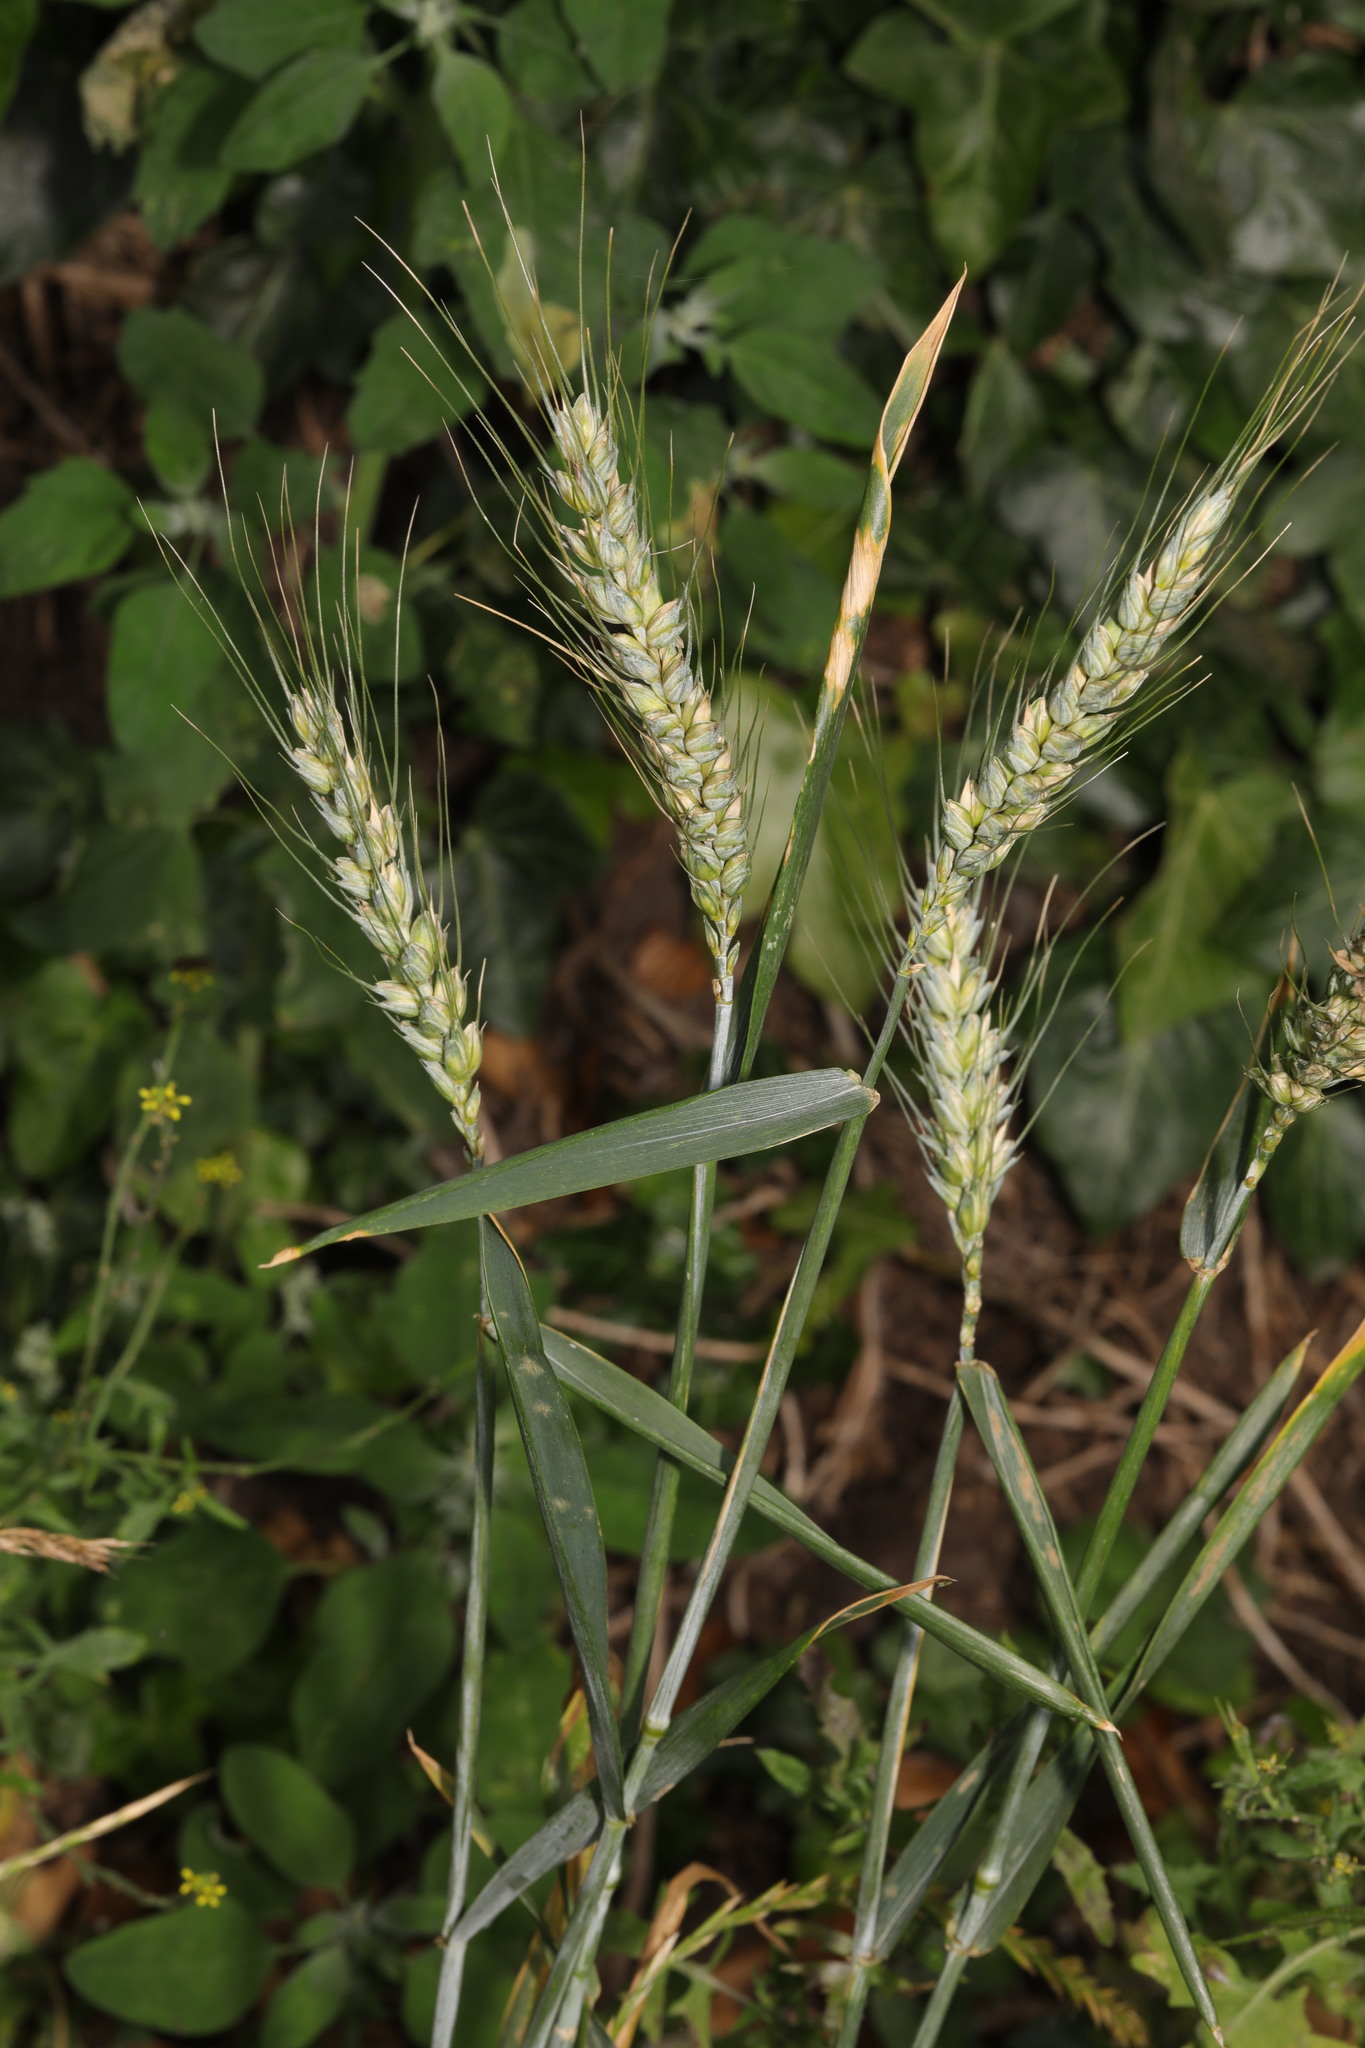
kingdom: Plantae
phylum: Tracheophyta
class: Liliopsida
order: Poales
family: Poaceae
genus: Triticum
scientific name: Triticum aestivum
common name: Common wheat
